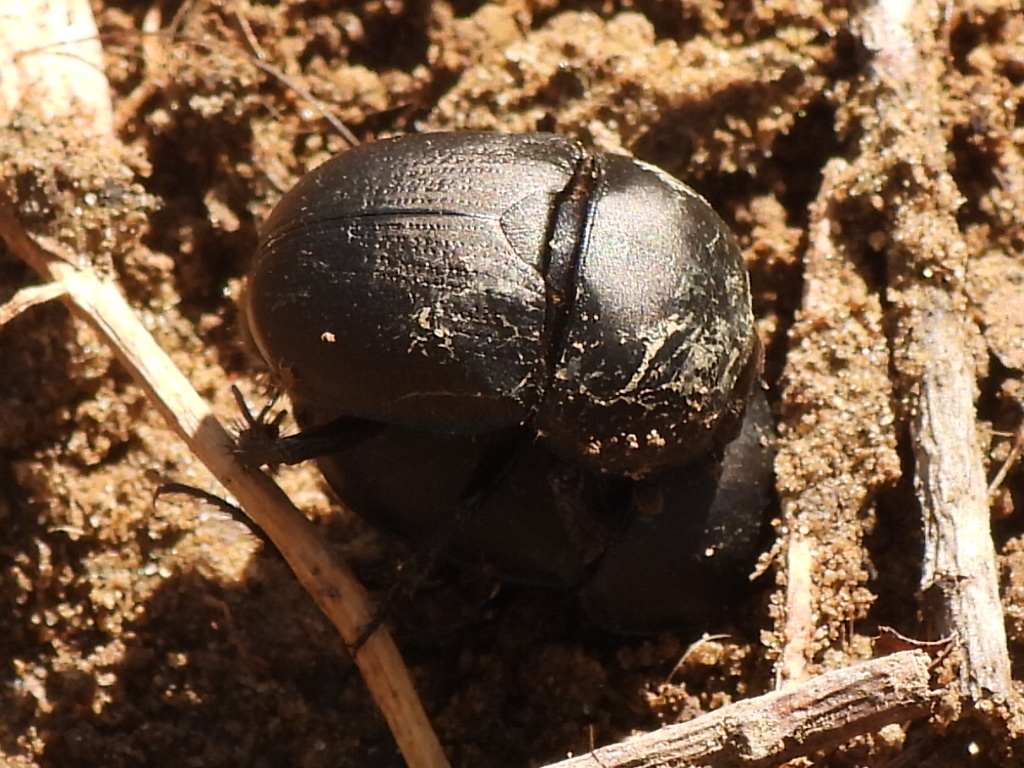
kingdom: Animalia
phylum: Arthropoda
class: Insecta
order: Coleoptera
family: Geotrupidae
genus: Geohowdenius
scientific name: Geohowdenius opacus
